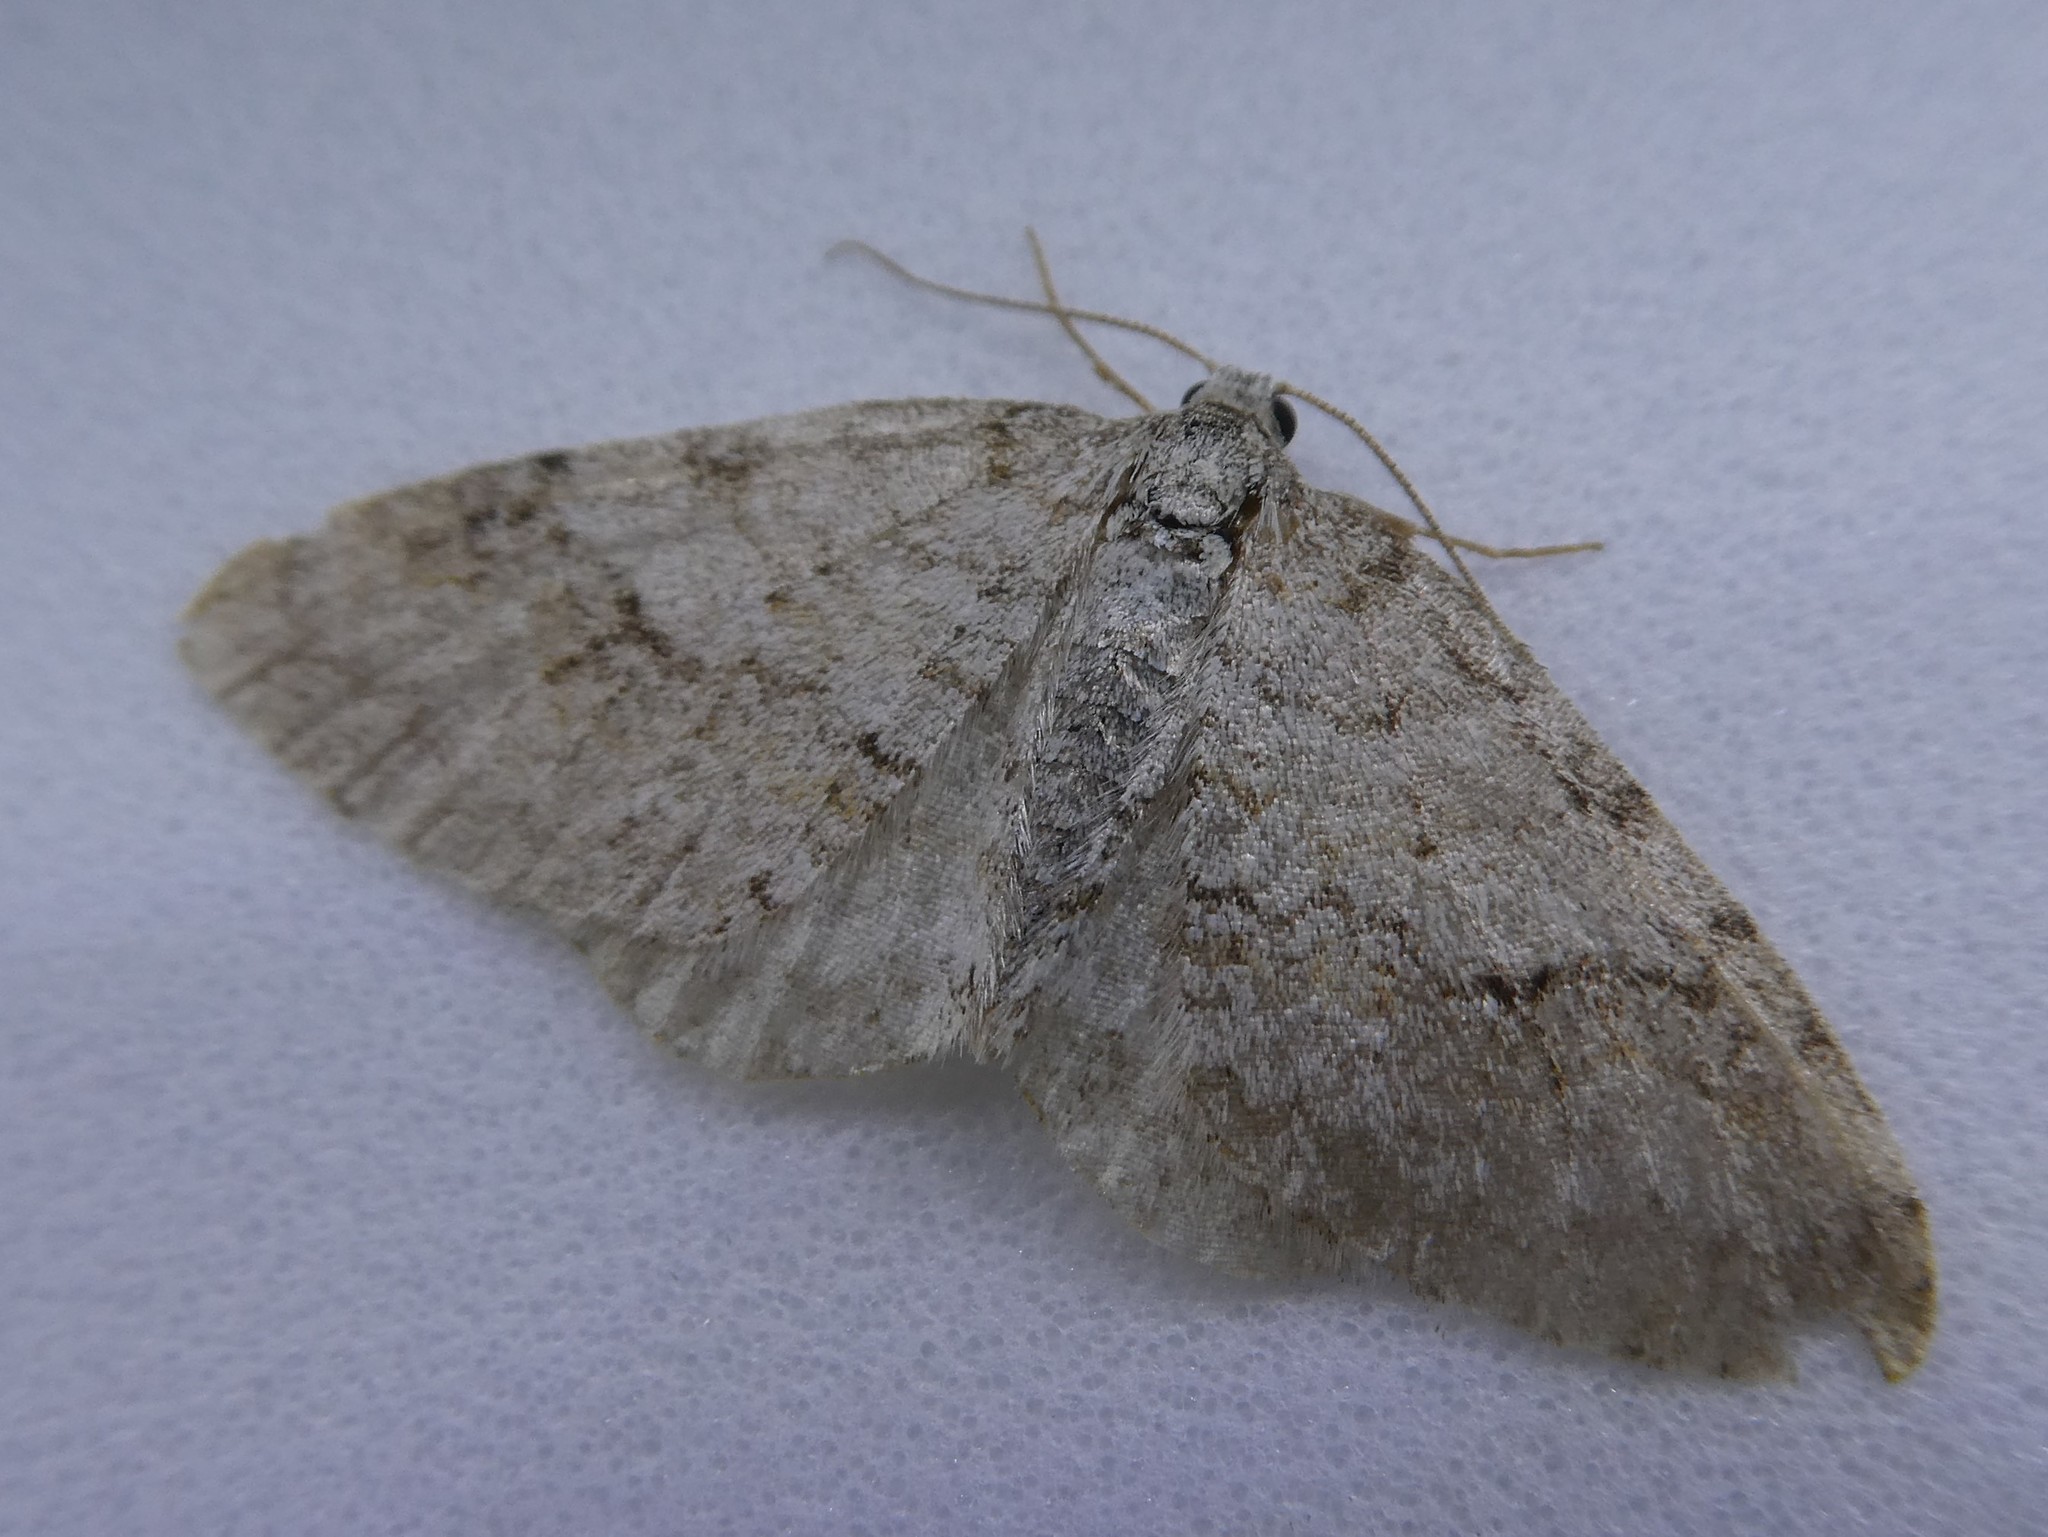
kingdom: Animalia
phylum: Arthropoda
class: Insecta
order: Lepidoptera
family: Geometridae
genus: Venusia
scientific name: Venusia comptaria
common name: Brown-shaded carpet
